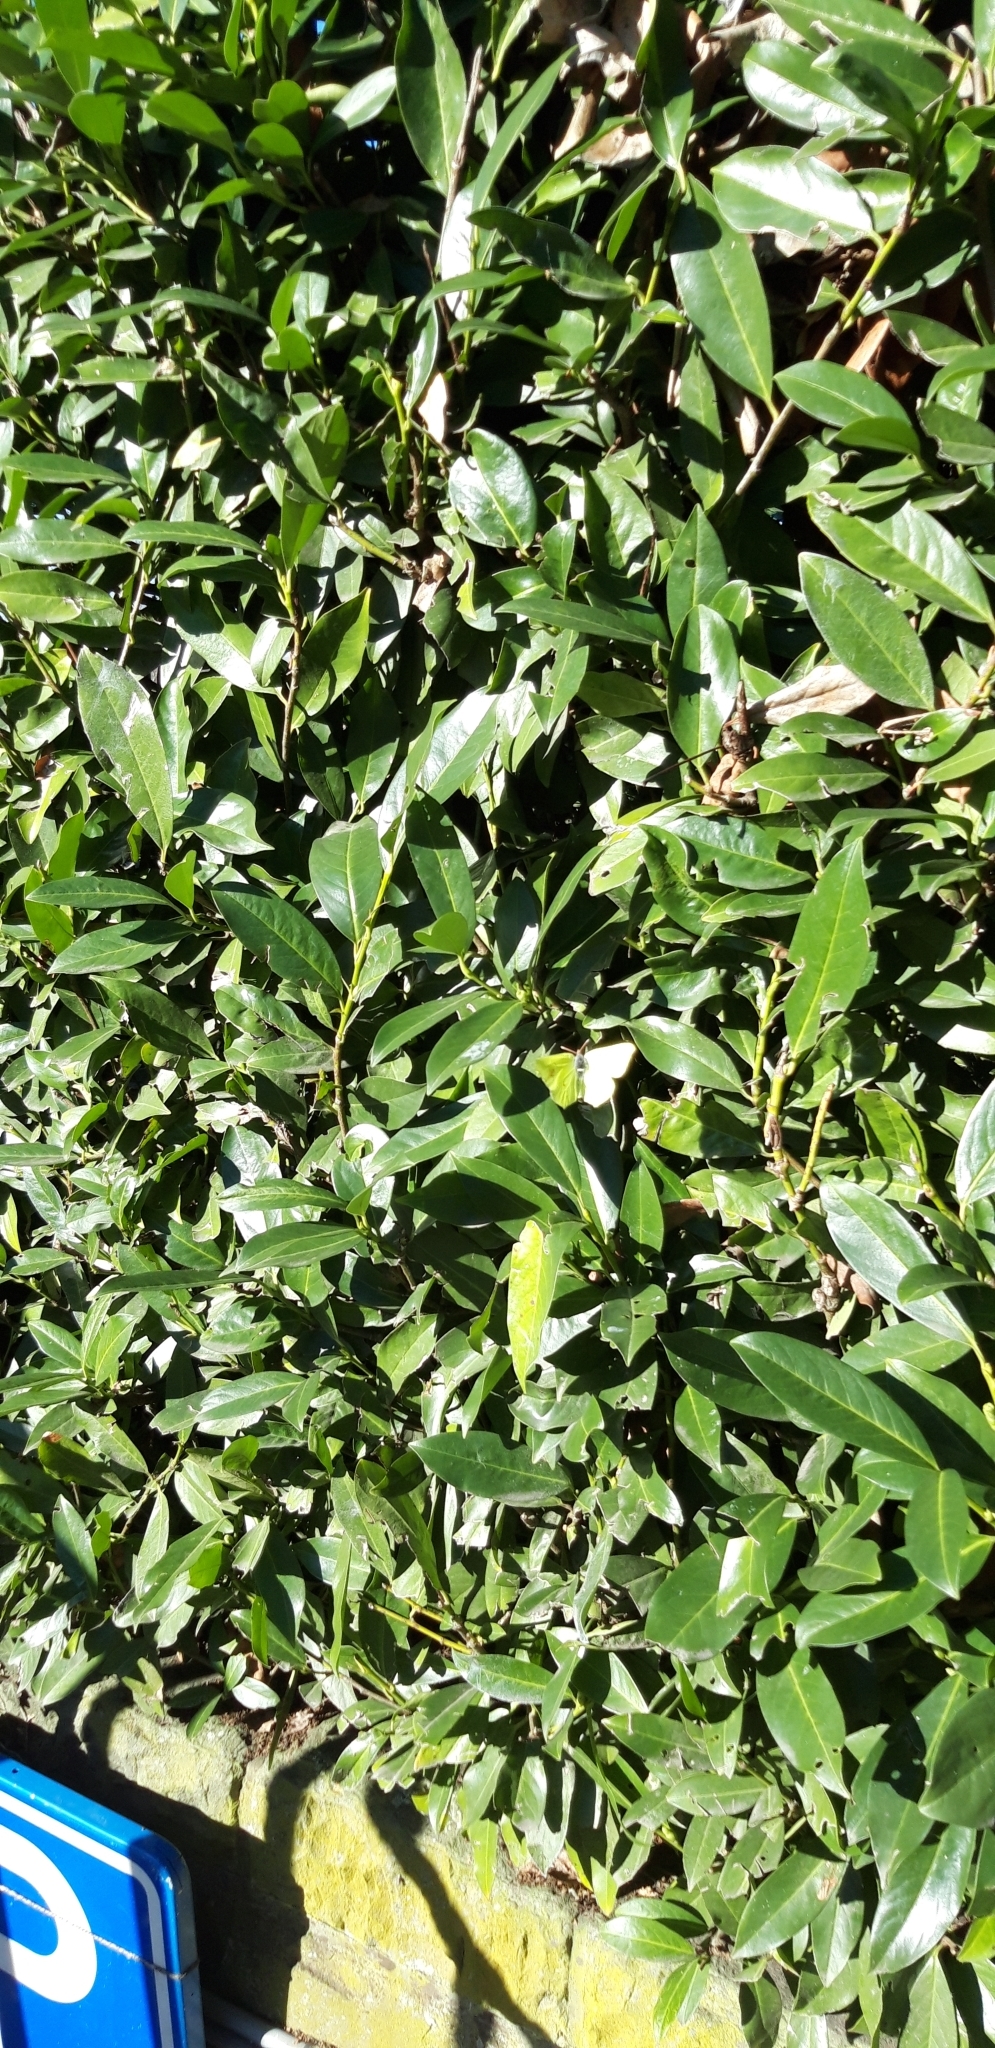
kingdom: Animalia
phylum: Arthropoda
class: Insecta
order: Lepidoptera
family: Pieridae
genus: Gonepteryx
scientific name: Gonepteryx rhamni
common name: Brimstone
